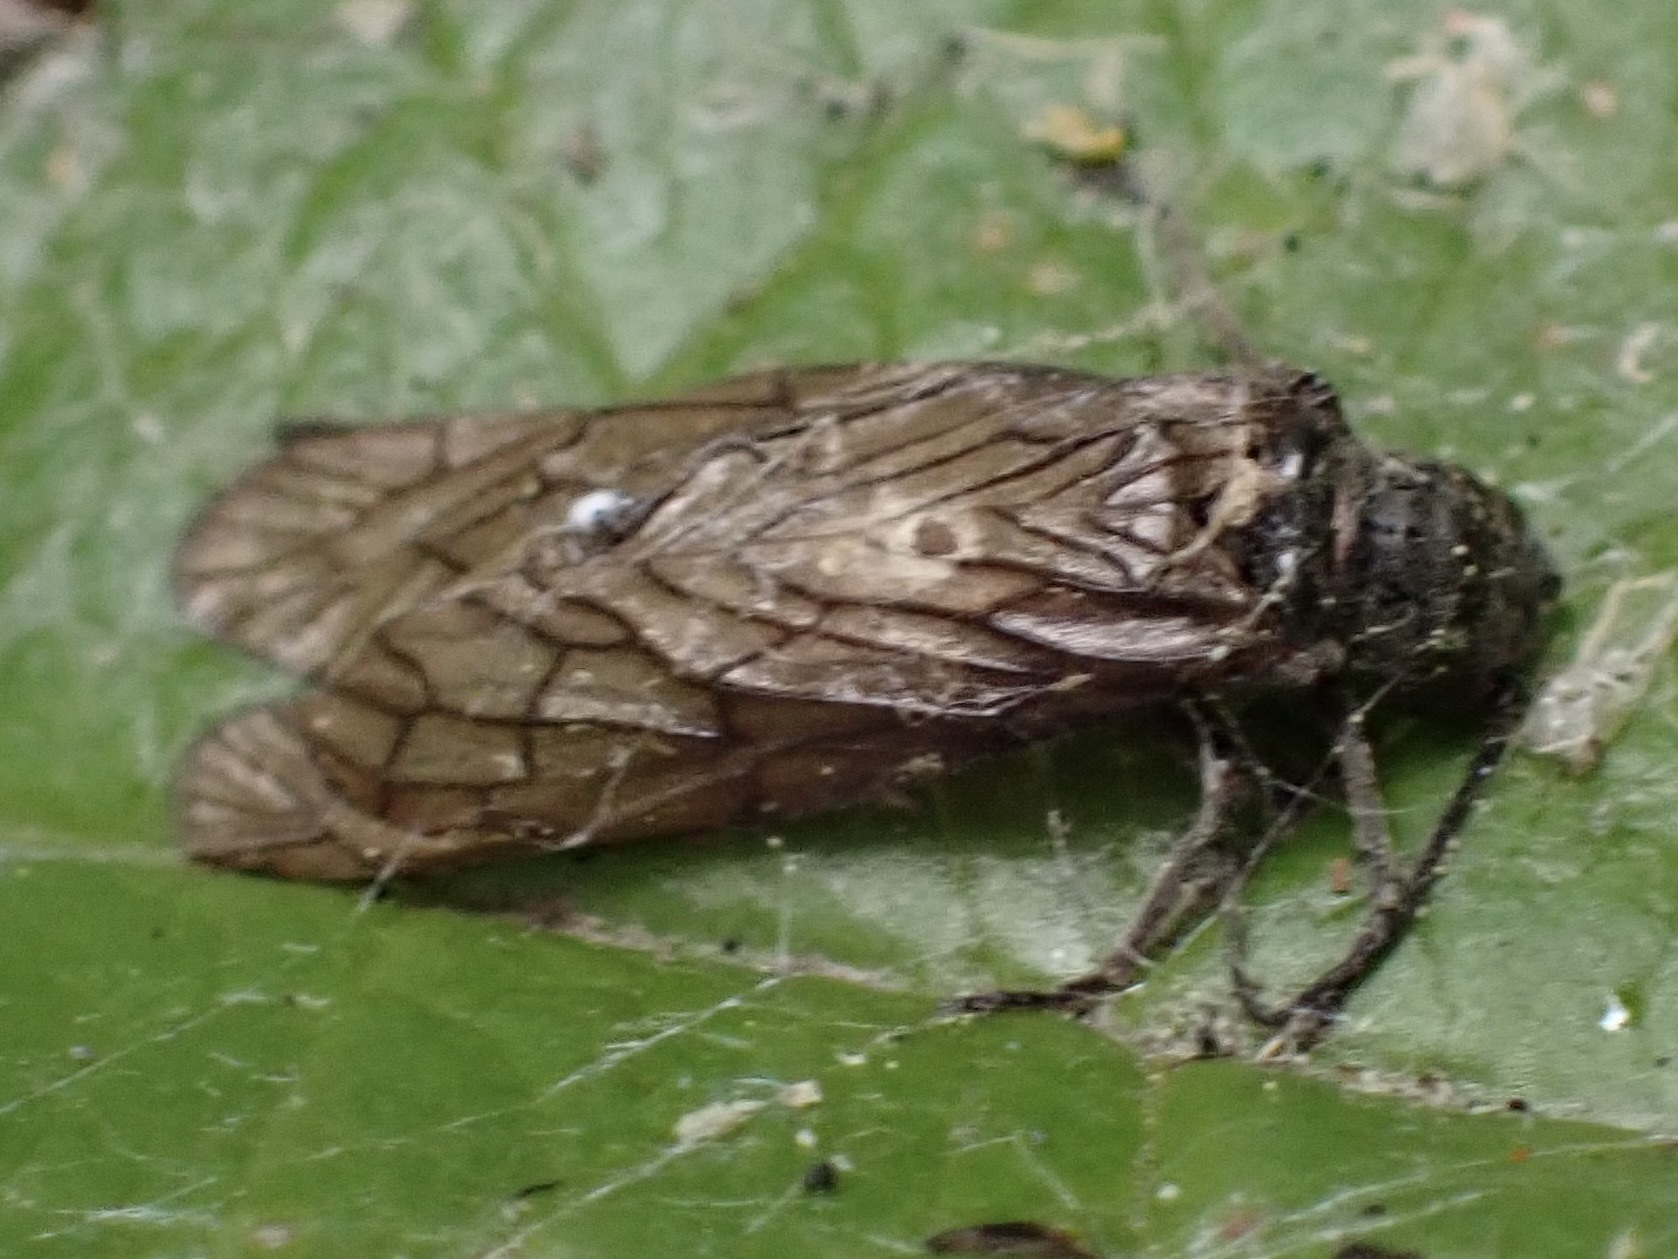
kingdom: Animalia
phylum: Arthropoda
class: Insecta
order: Megaloptera
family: Sialidae
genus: Sialis
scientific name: Sialis
